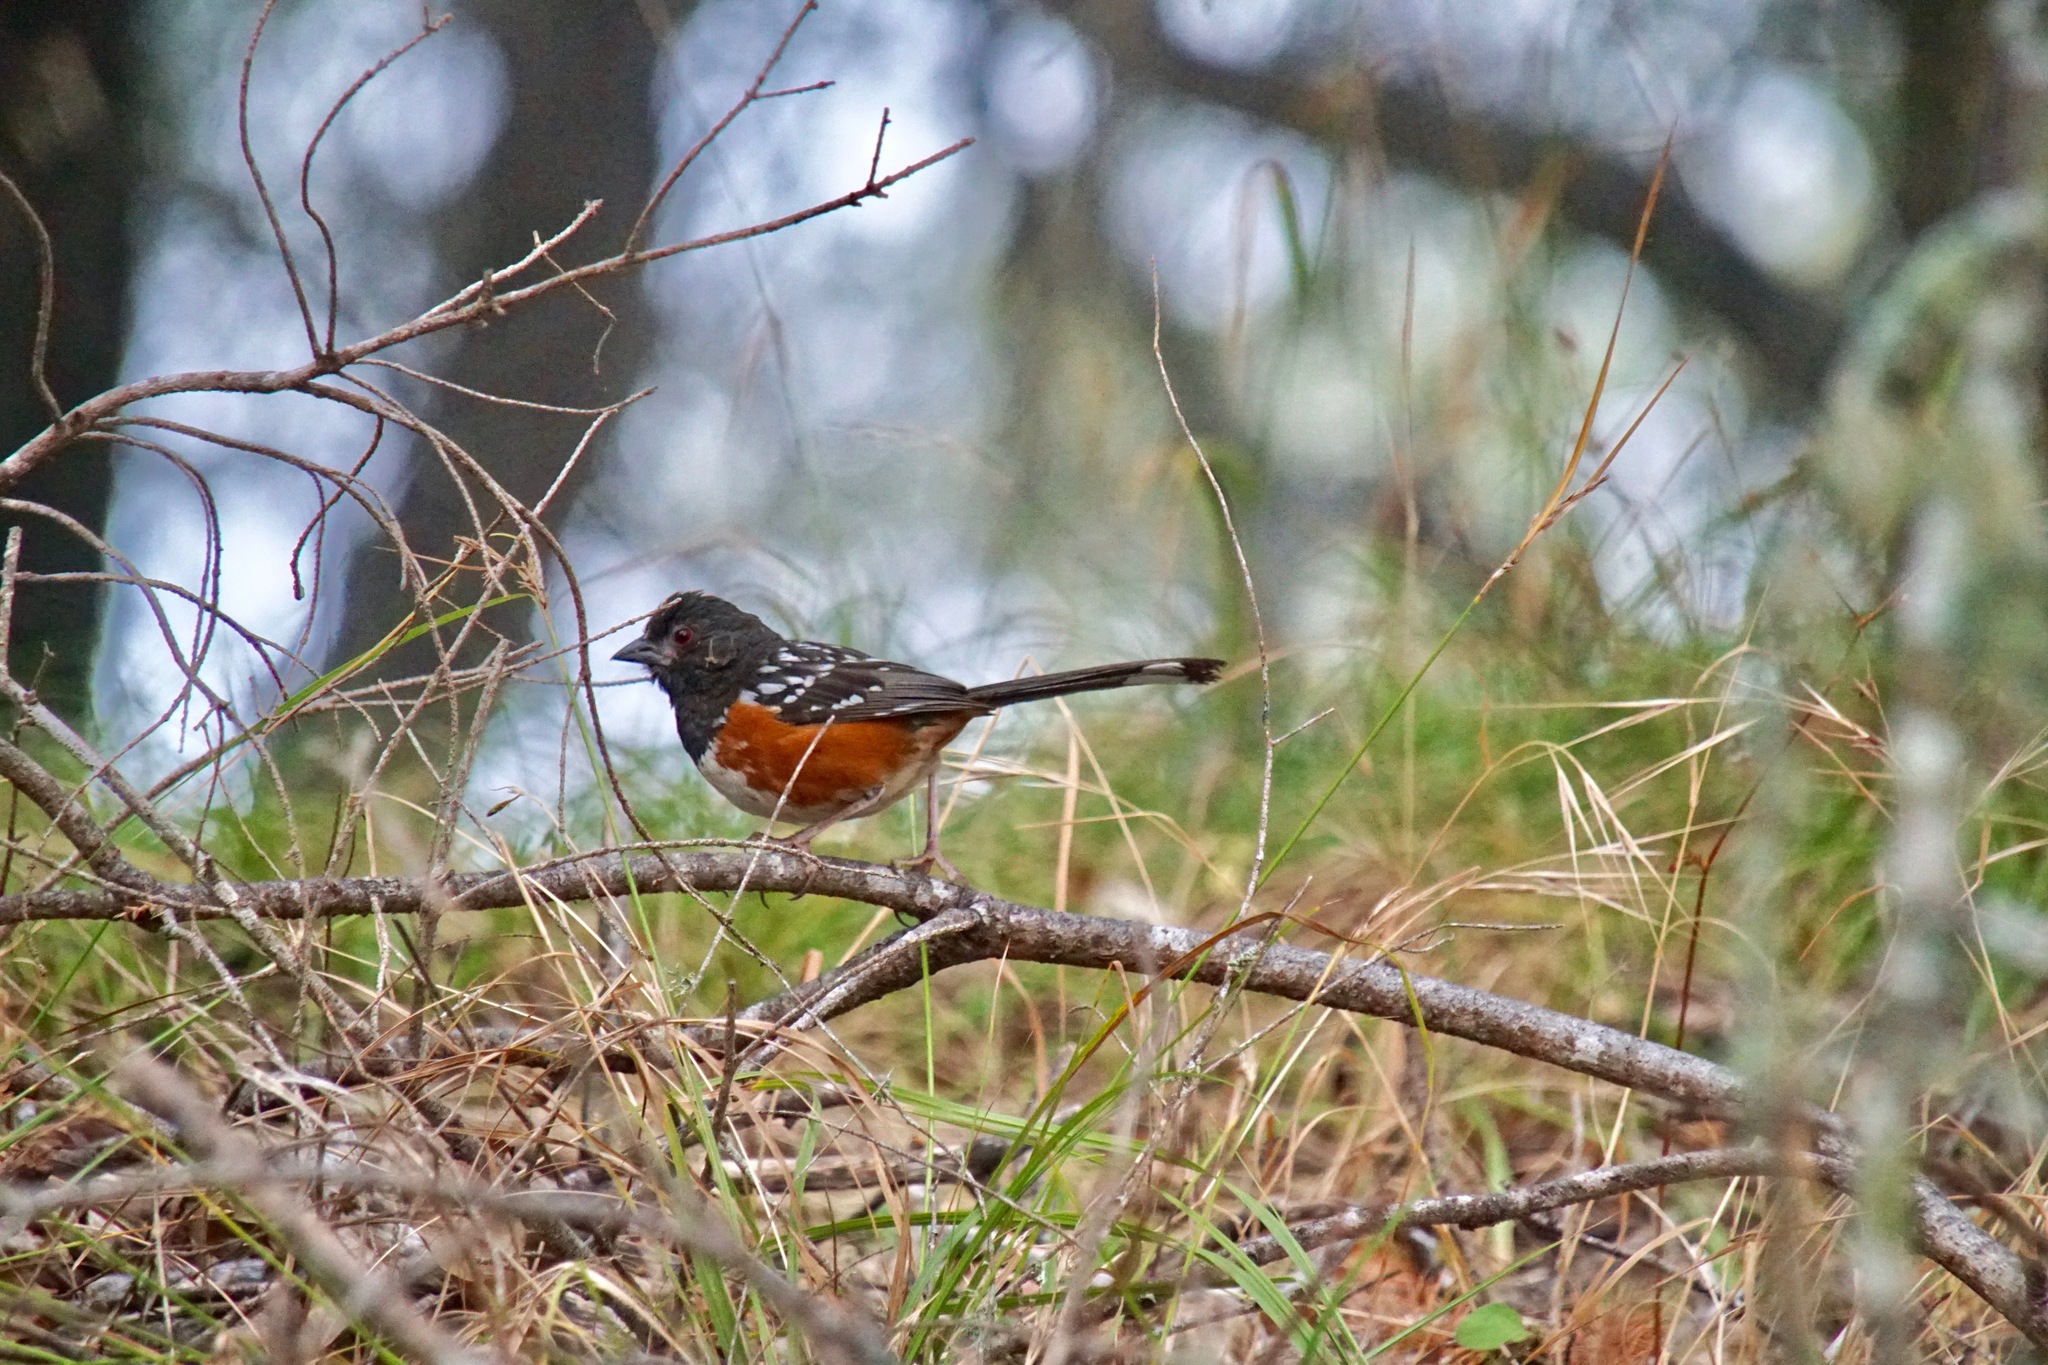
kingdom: Animalia
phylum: Chordata
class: Aves
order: Passeriformes
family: Passerellidae
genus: Pipilo
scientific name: Pipilo maculatus
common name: Spotted towhee
